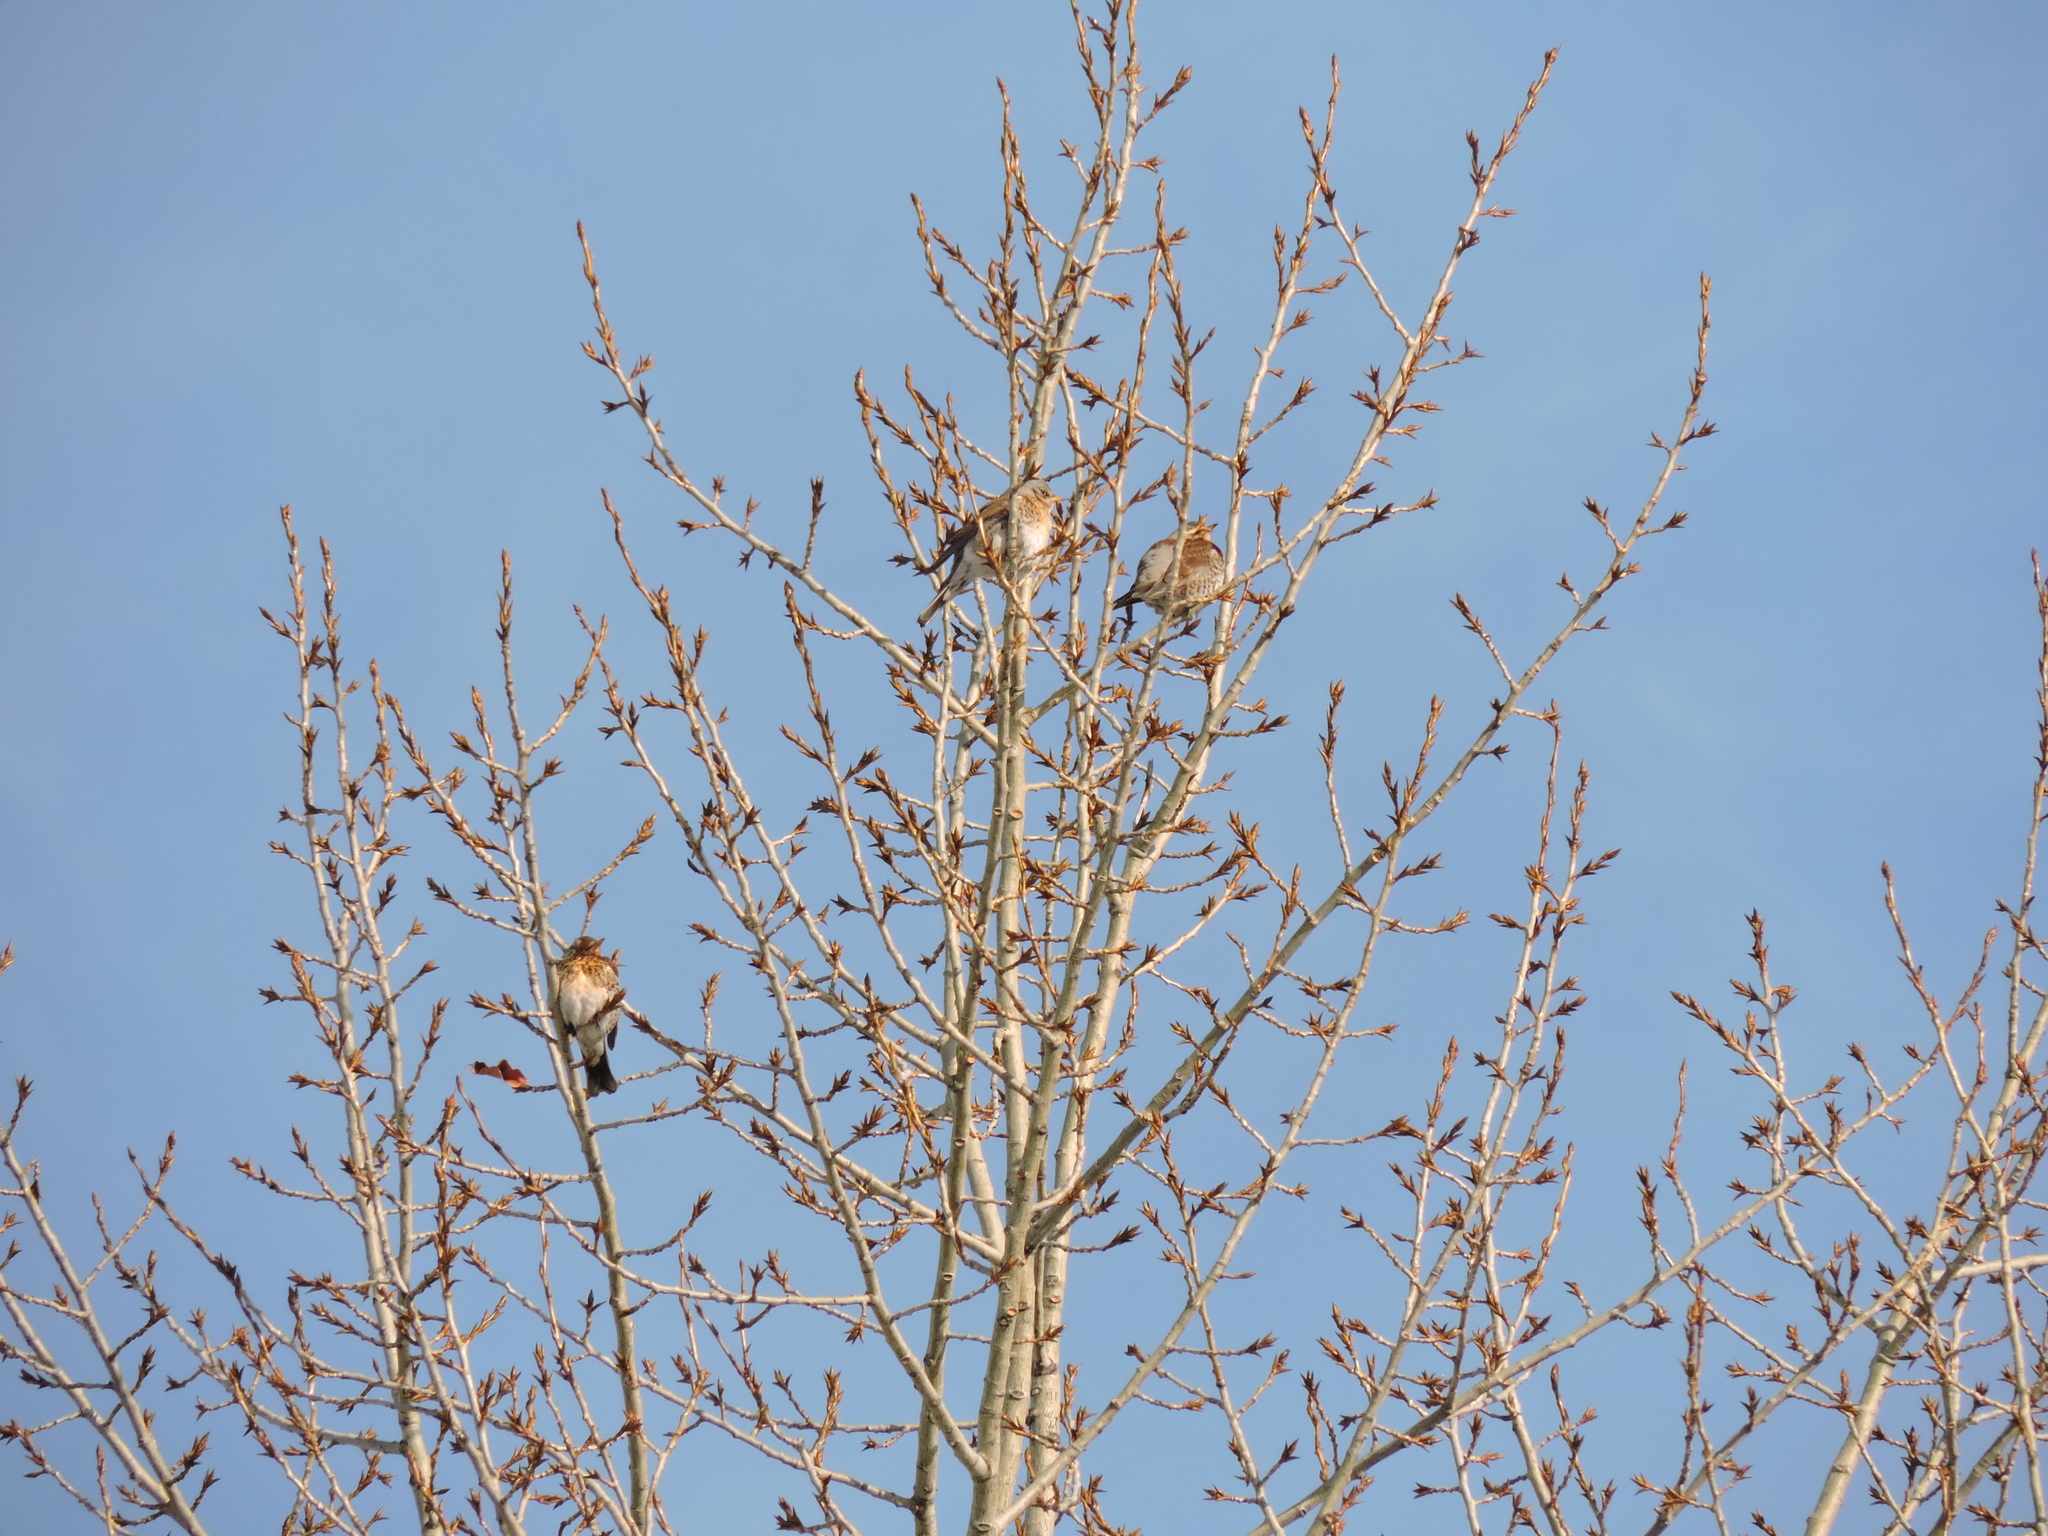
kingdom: Animalia
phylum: Chordata
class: Aves
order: Passeriformes
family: Turdidae
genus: Turdus
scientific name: Turdus pilaris
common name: Fieldfare
